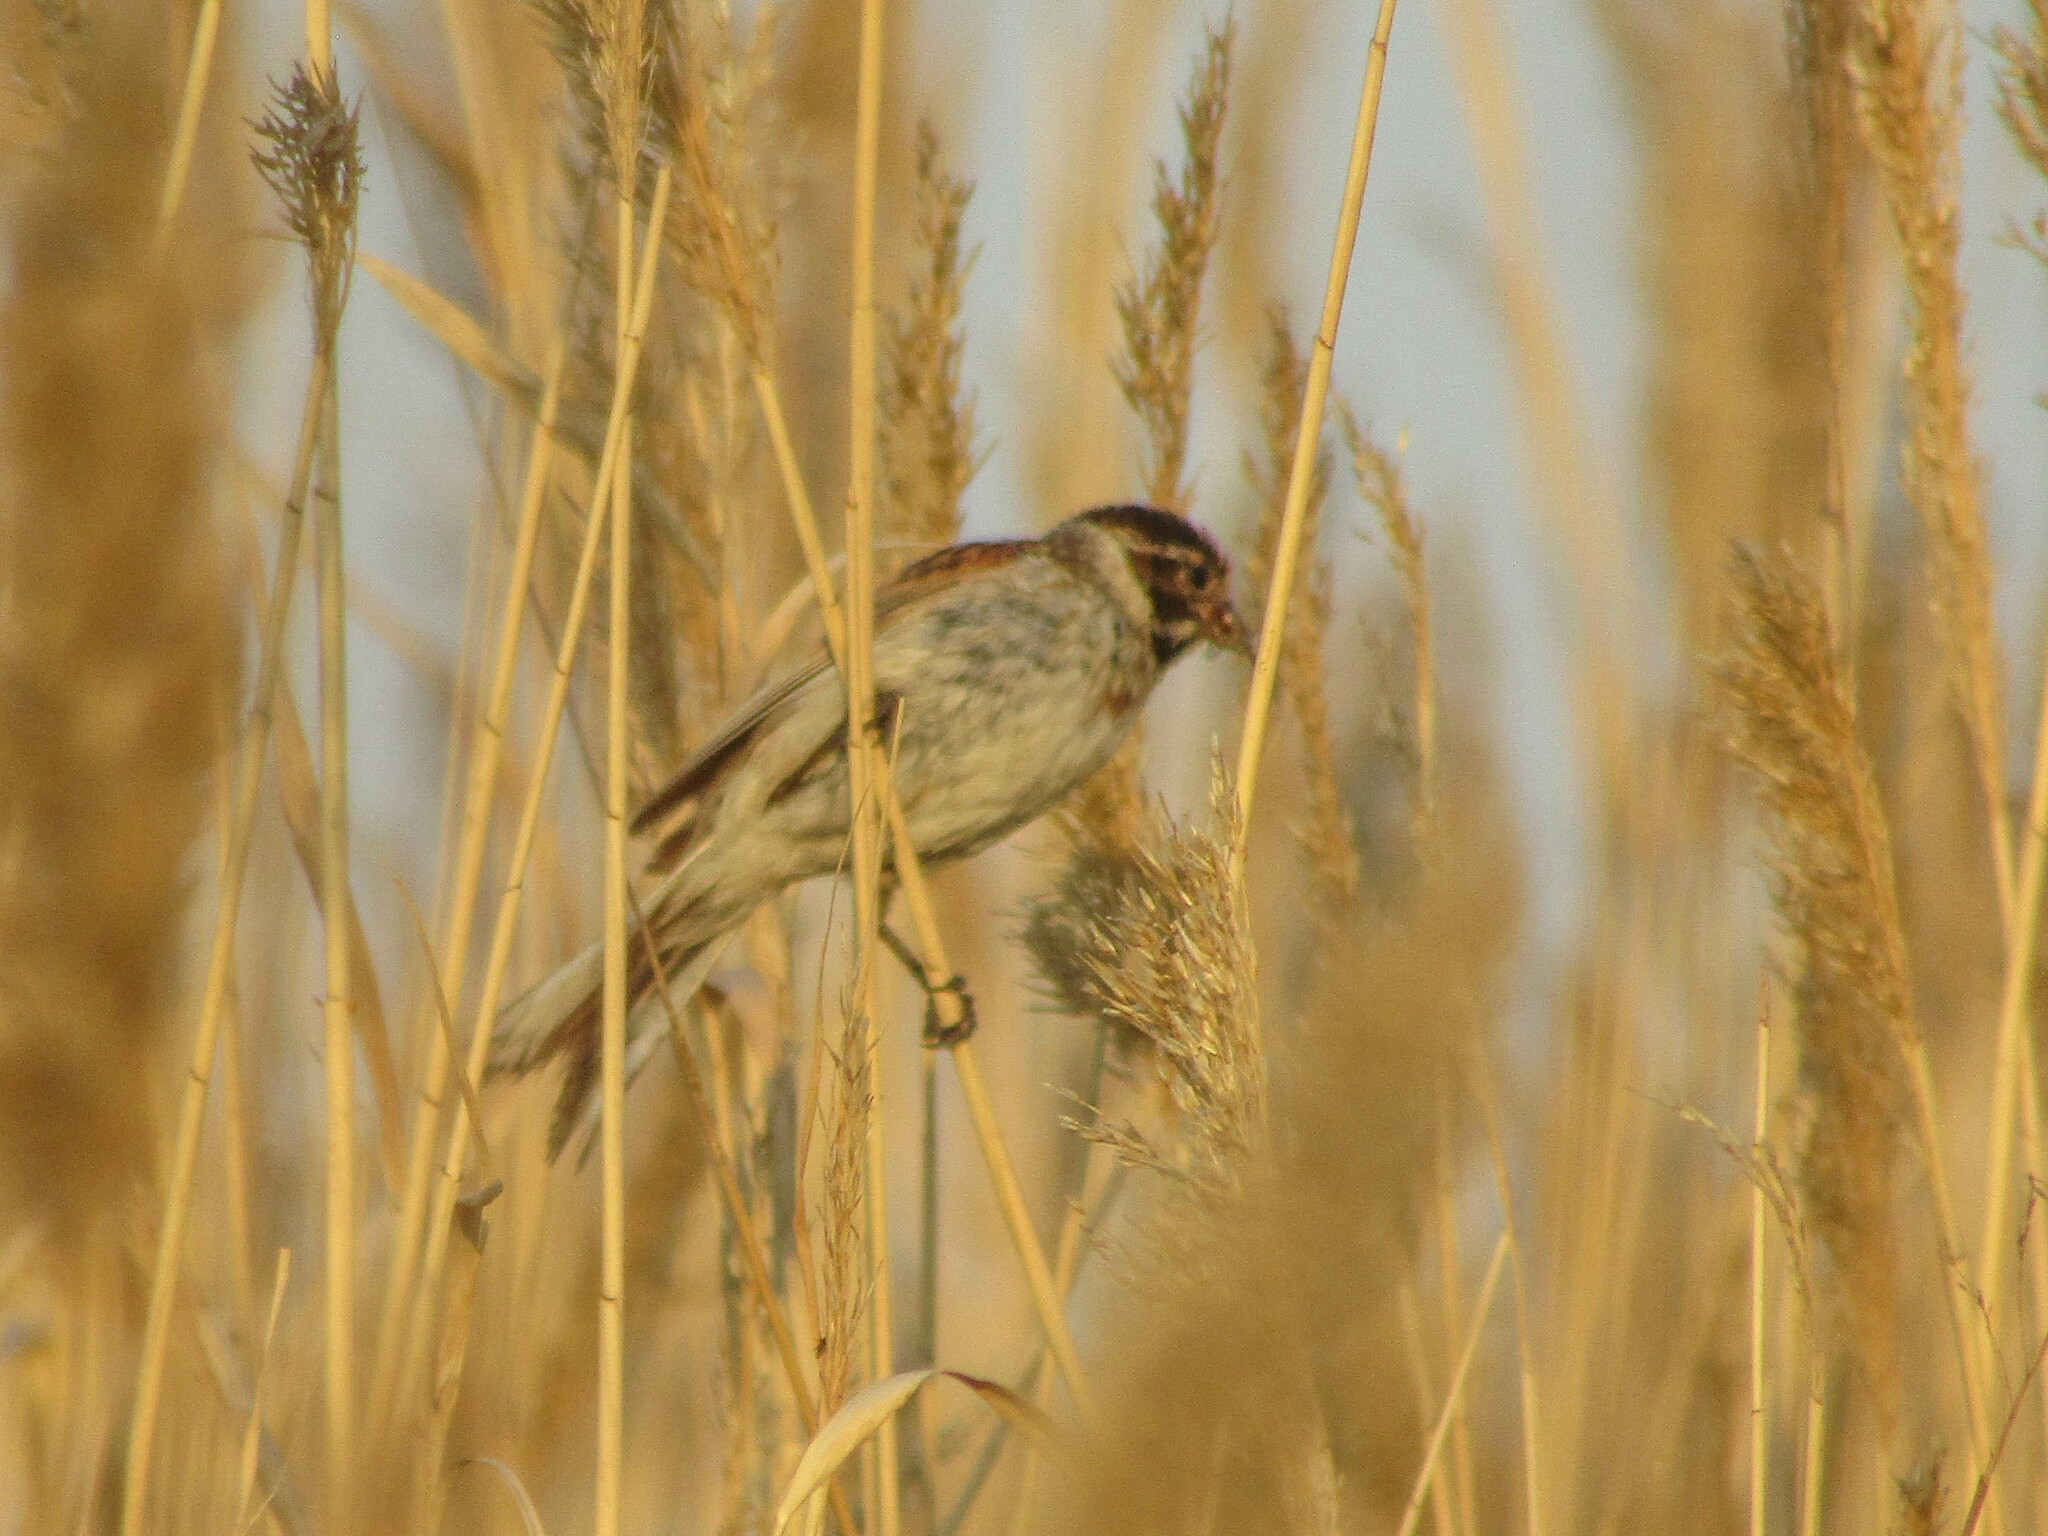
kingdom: Animalia
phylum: Chordata
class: Aves
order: Passeriformes
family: Emberizidae
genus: Emberiza
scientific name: Emberiza schoeniclus
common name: Reed bunting
